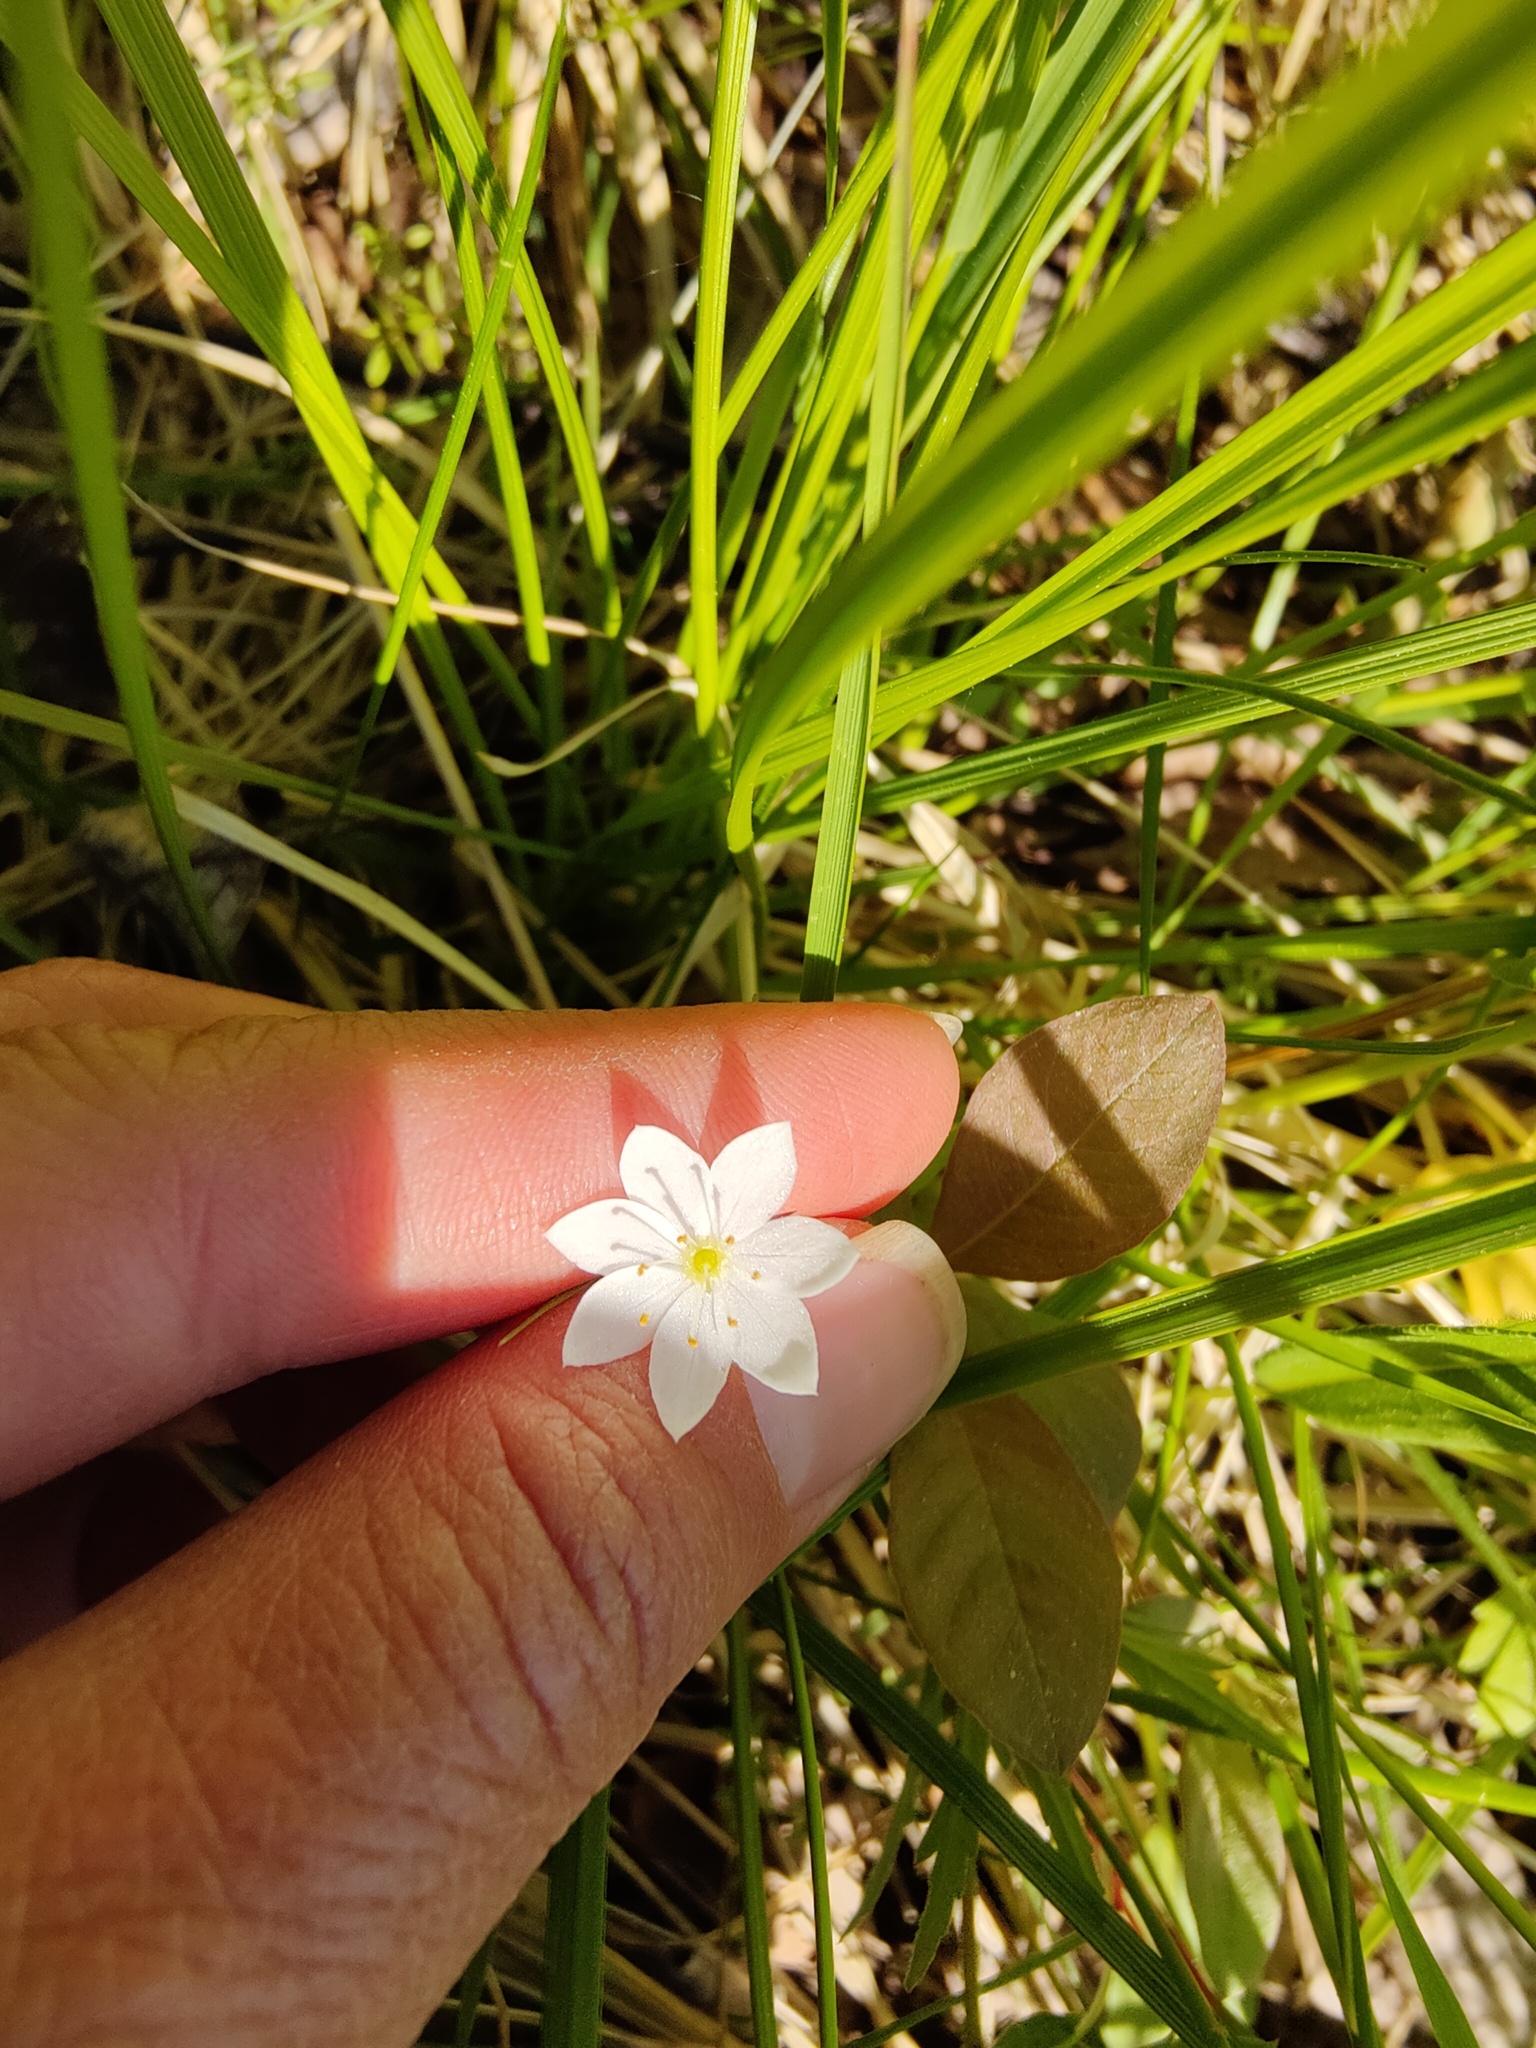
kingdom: Plantae
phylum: Tracheophyta
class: Magnoliopsida
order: Ericales
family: Primulaceae
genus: Lysimachia
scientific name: Lysimachia europaea
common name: Arctic starflower
